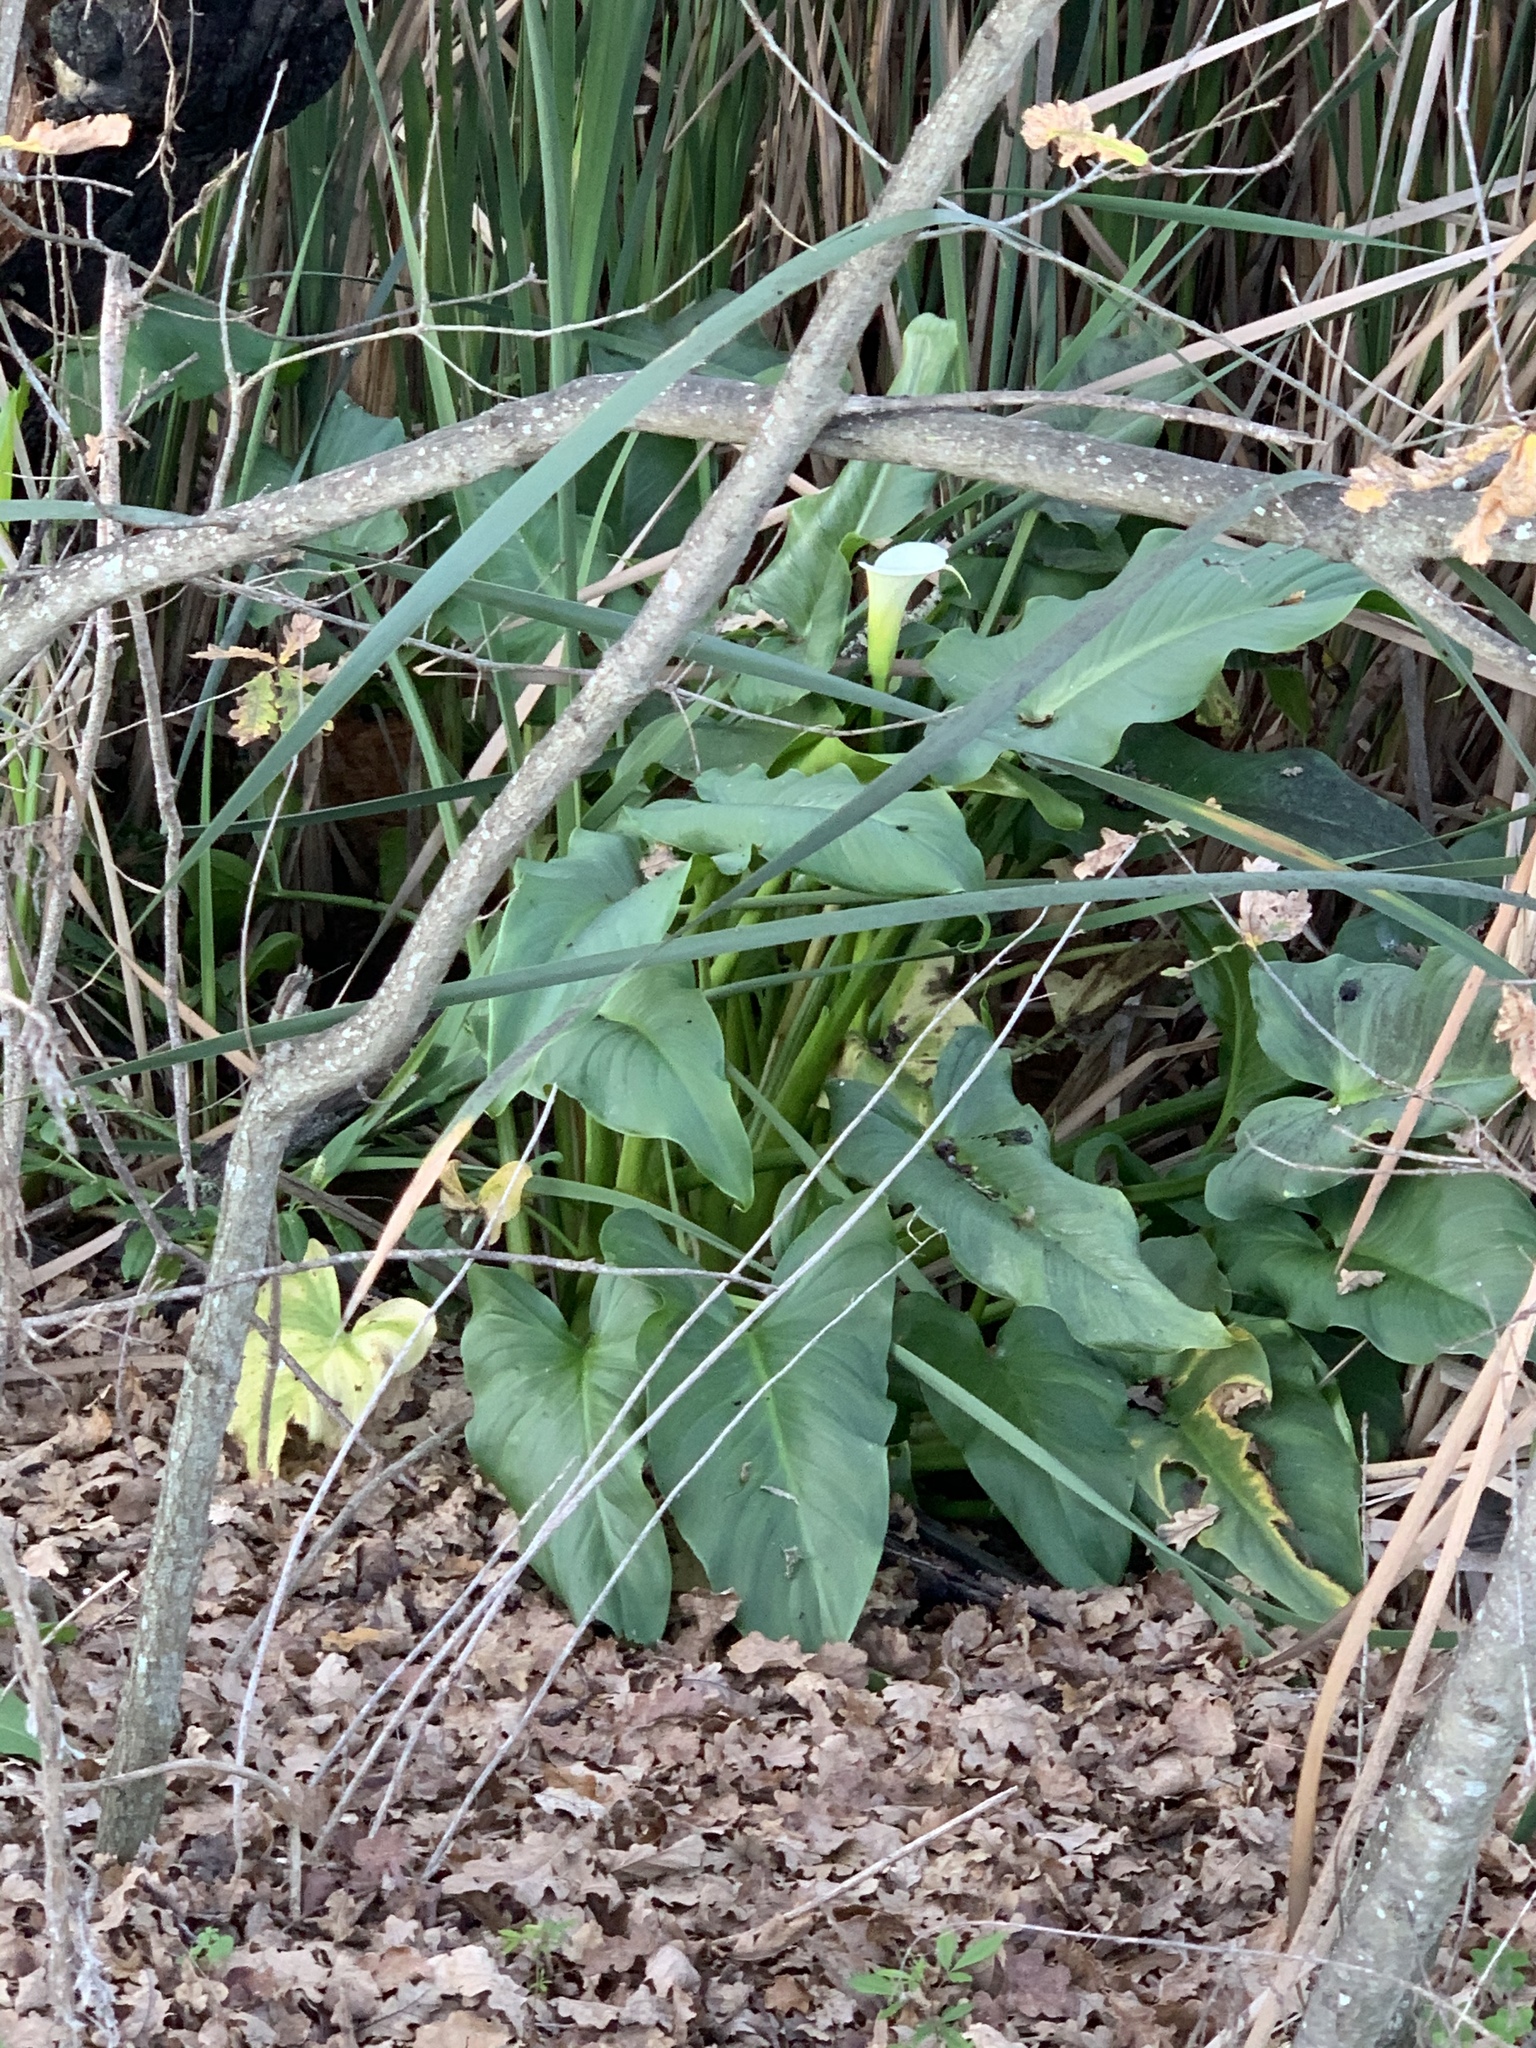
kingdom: Plantae
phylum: Tracheophyta
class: Liliopsida
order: Alismatales
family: Araceae
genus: Zantedeschia
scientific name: Zantedeschia aethiopica
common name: Altar-lily
